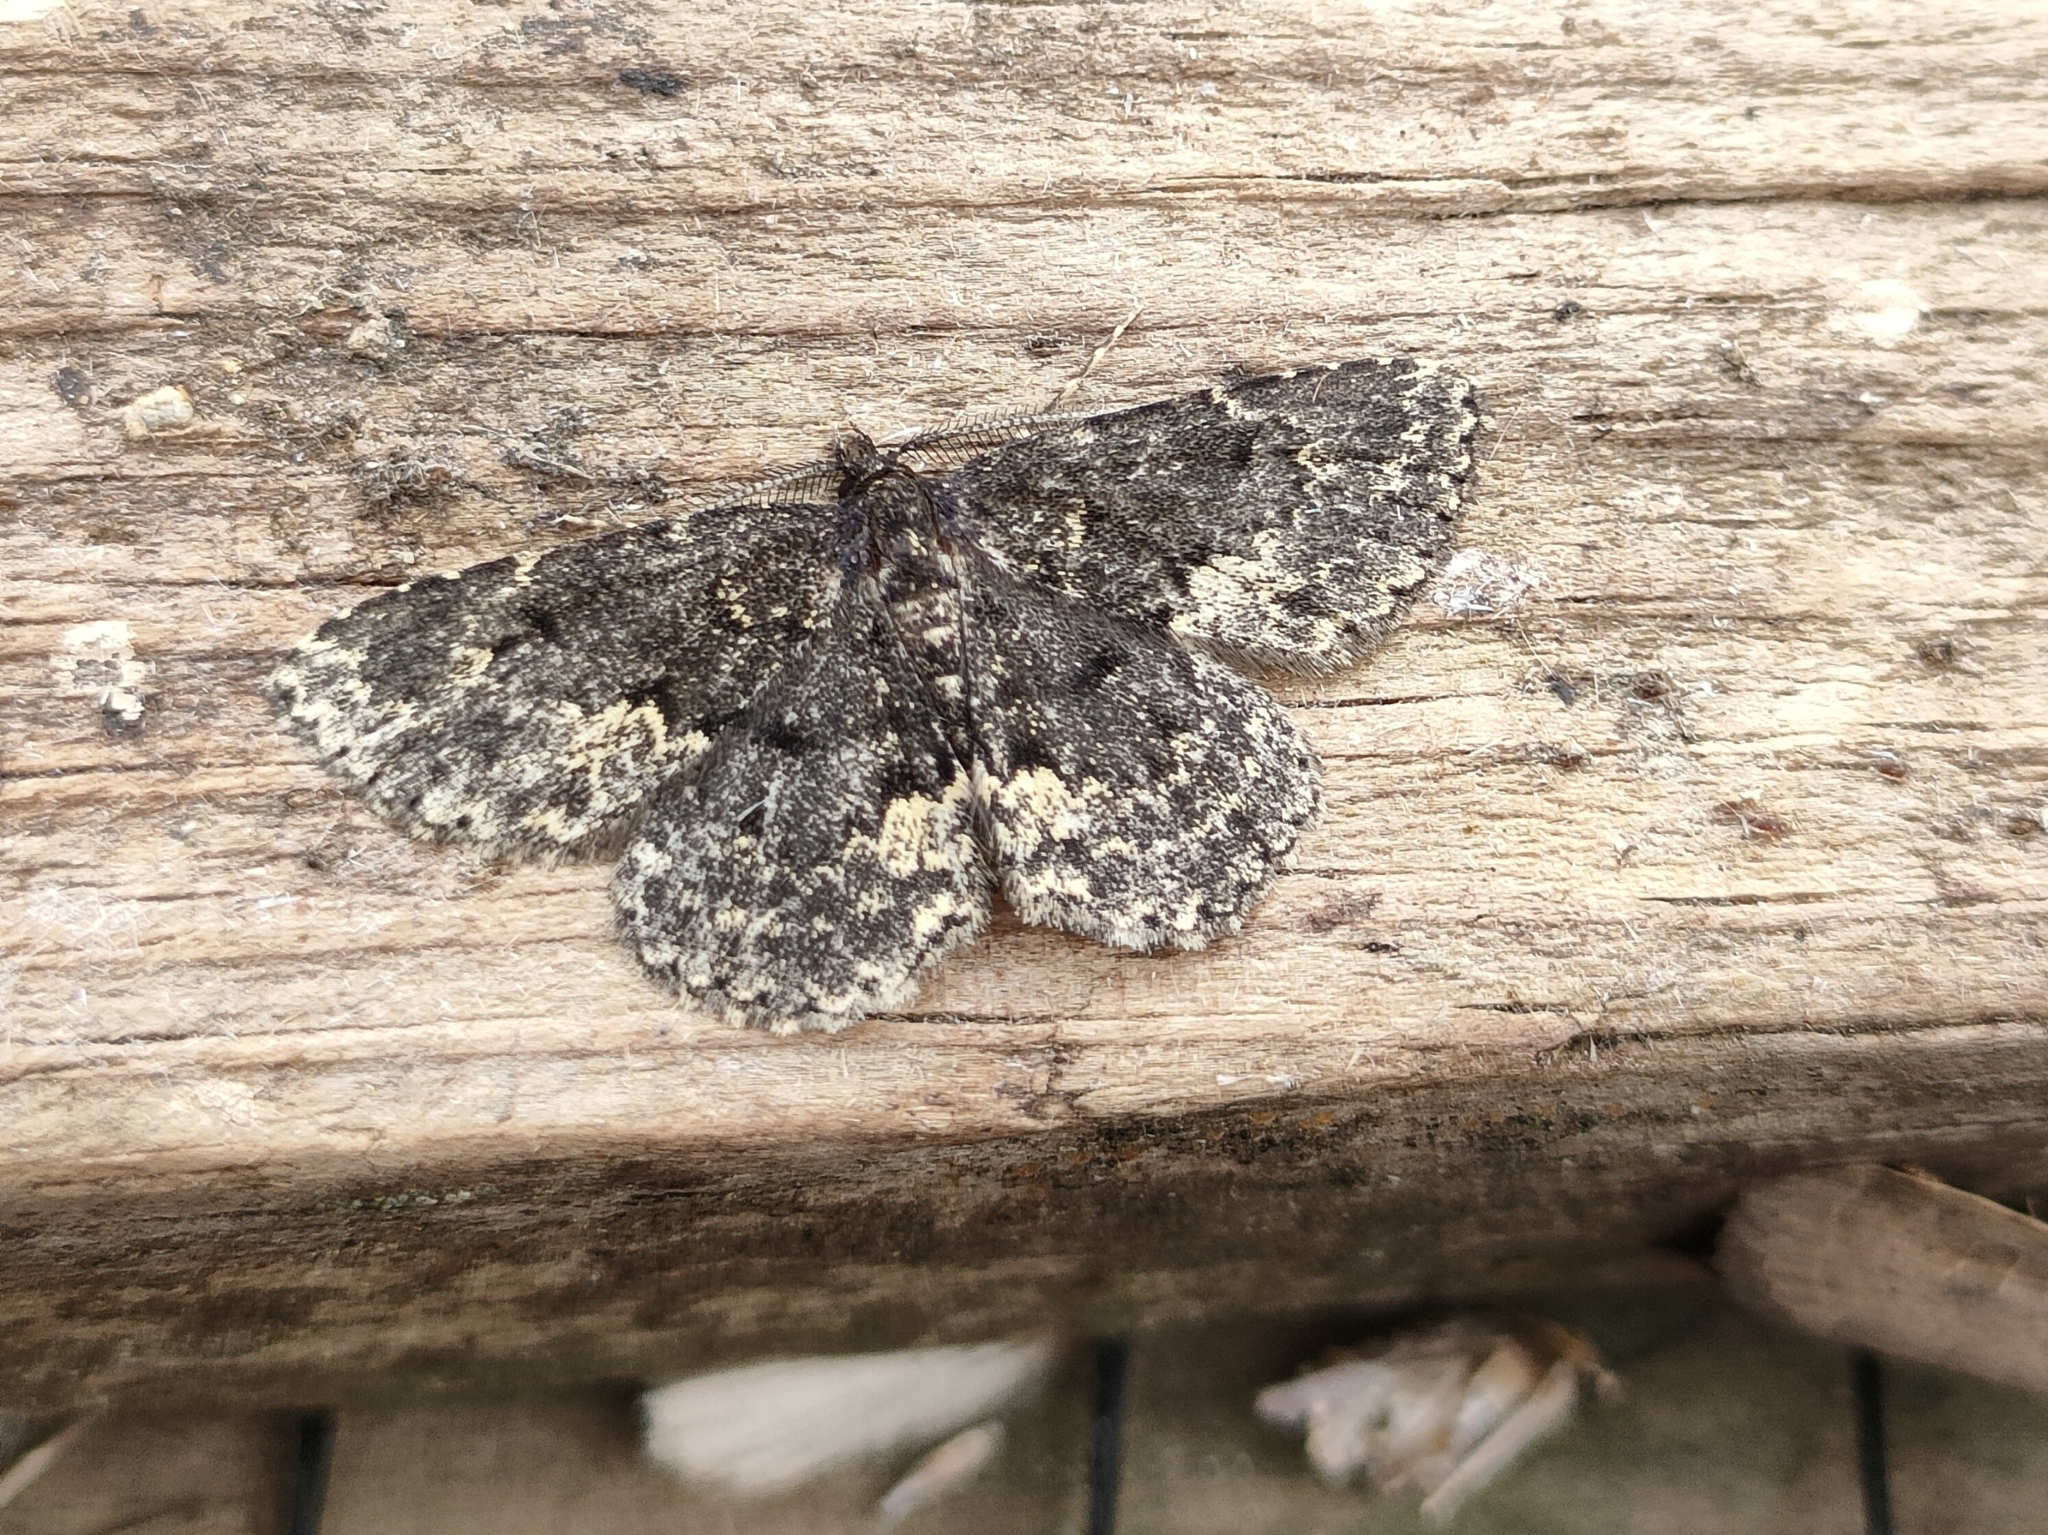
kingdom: Animalia
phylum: Arthropoda
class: Insecta
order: Lepidoptera
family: Erebidae
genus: Parascotia
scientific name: Parascotia fuliginaria
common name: Waved black
